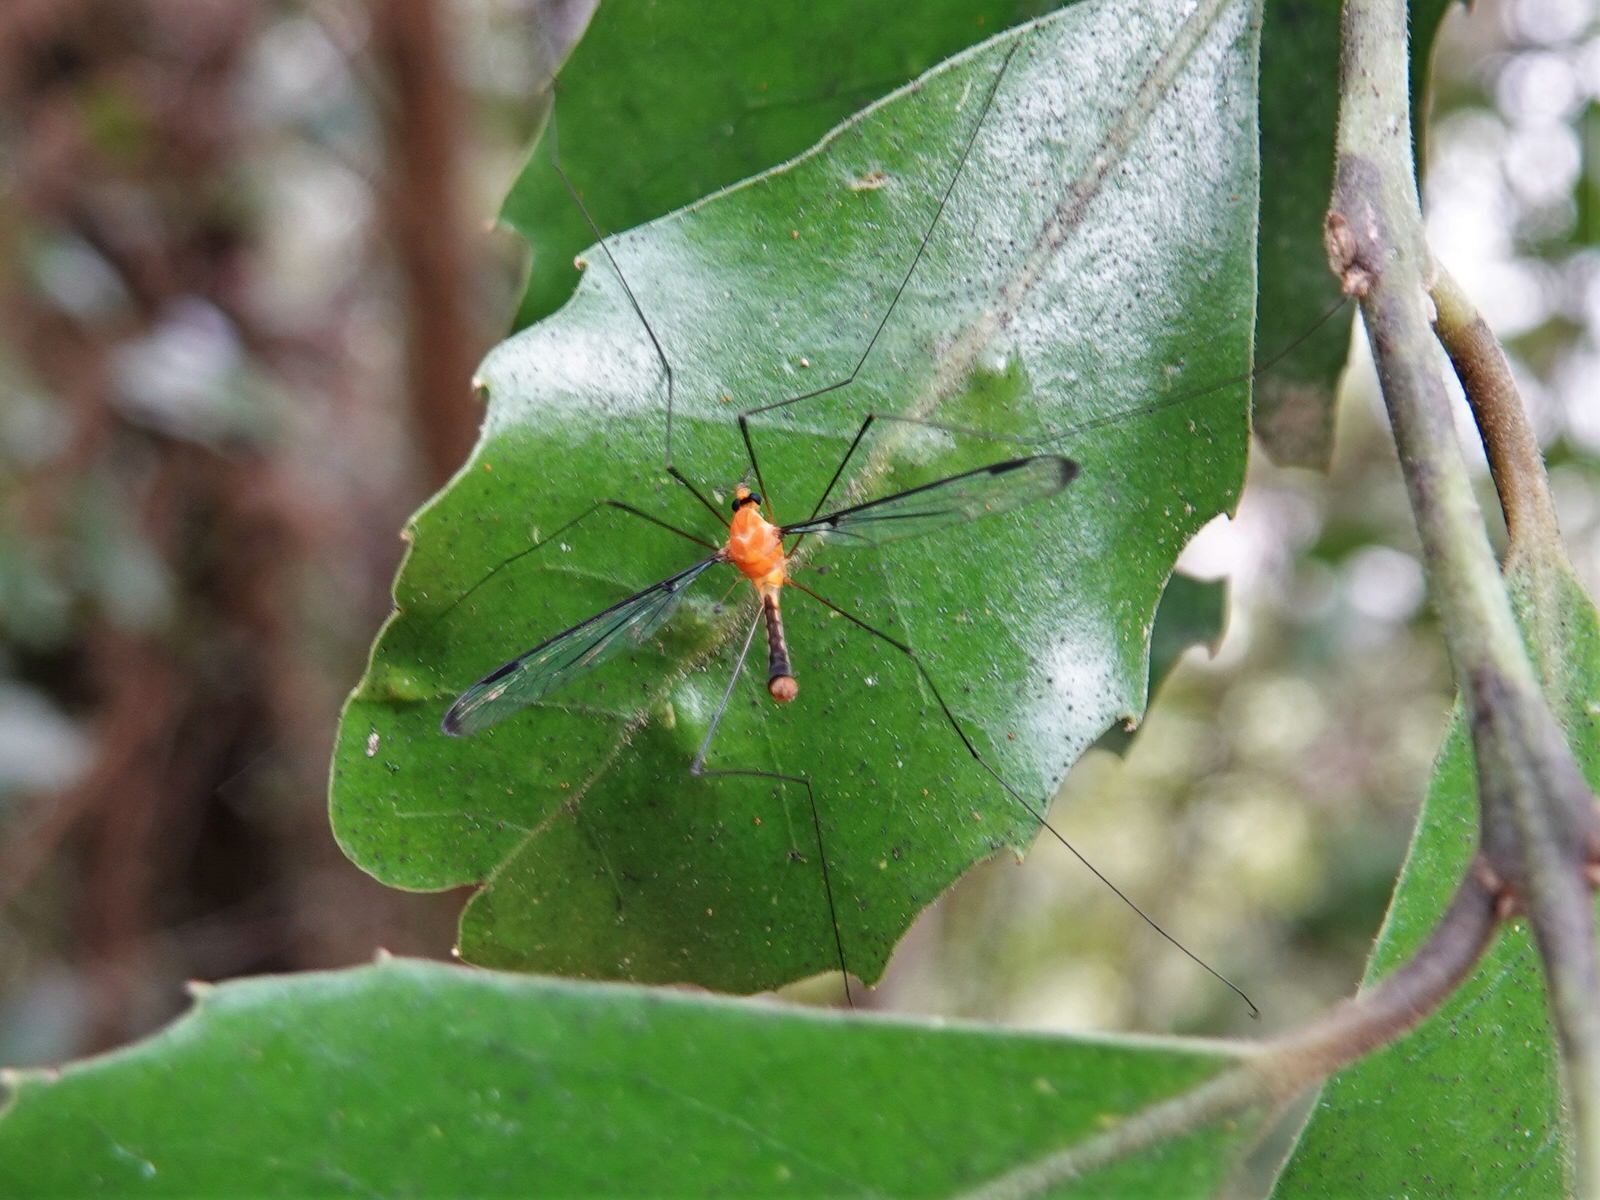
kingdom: Animalia
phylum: Arthropoda
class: Insecta
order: Diptera
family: Tipulidae
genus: Aurotipula
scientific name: Aurotipula
